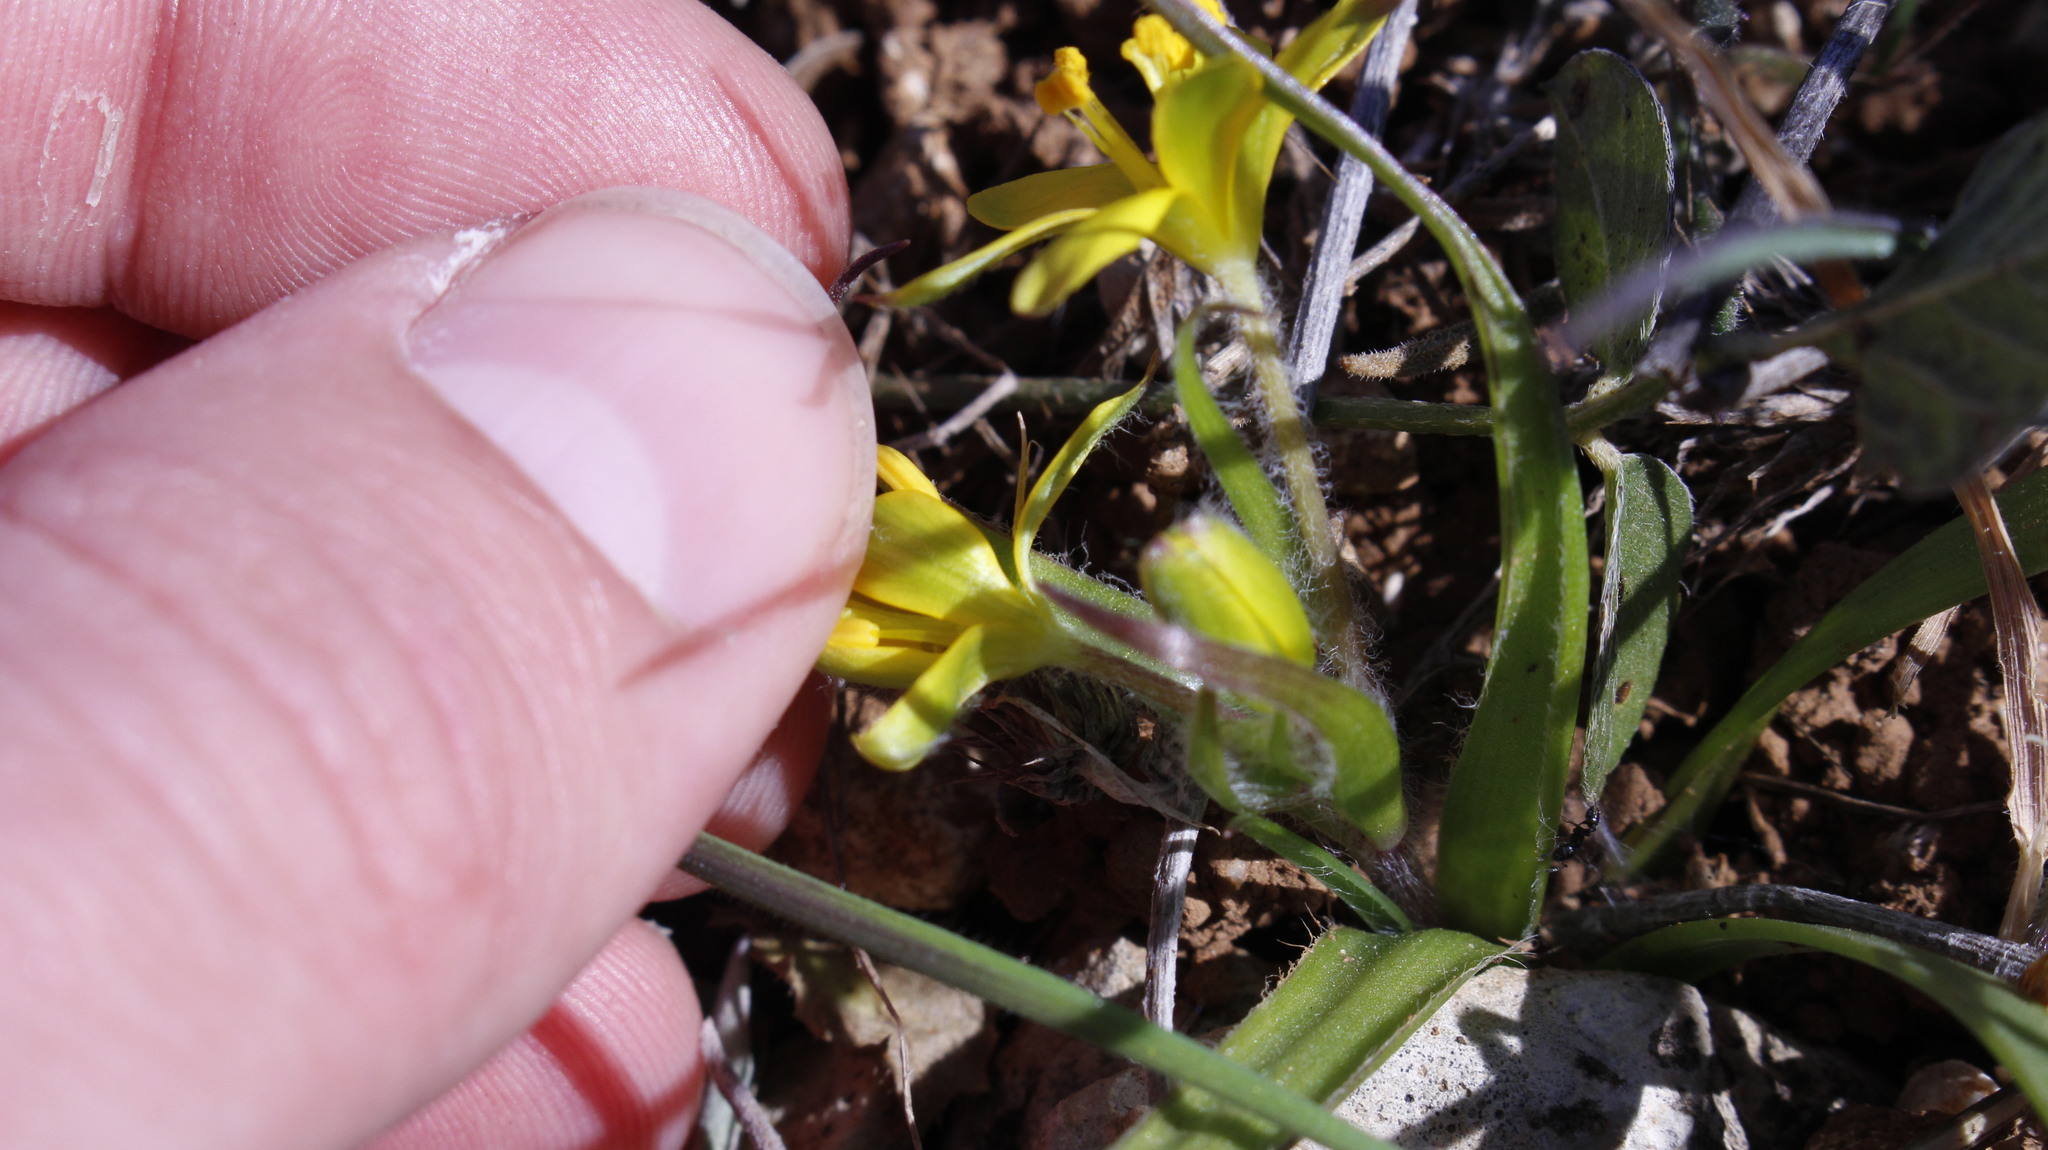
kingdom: Plantae
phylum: Tracheophyta
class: Liliopsida
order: Liliales
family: Liliaceae
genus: Gagea
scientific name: Gagea lacaitae
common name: Gagée de lacaita
